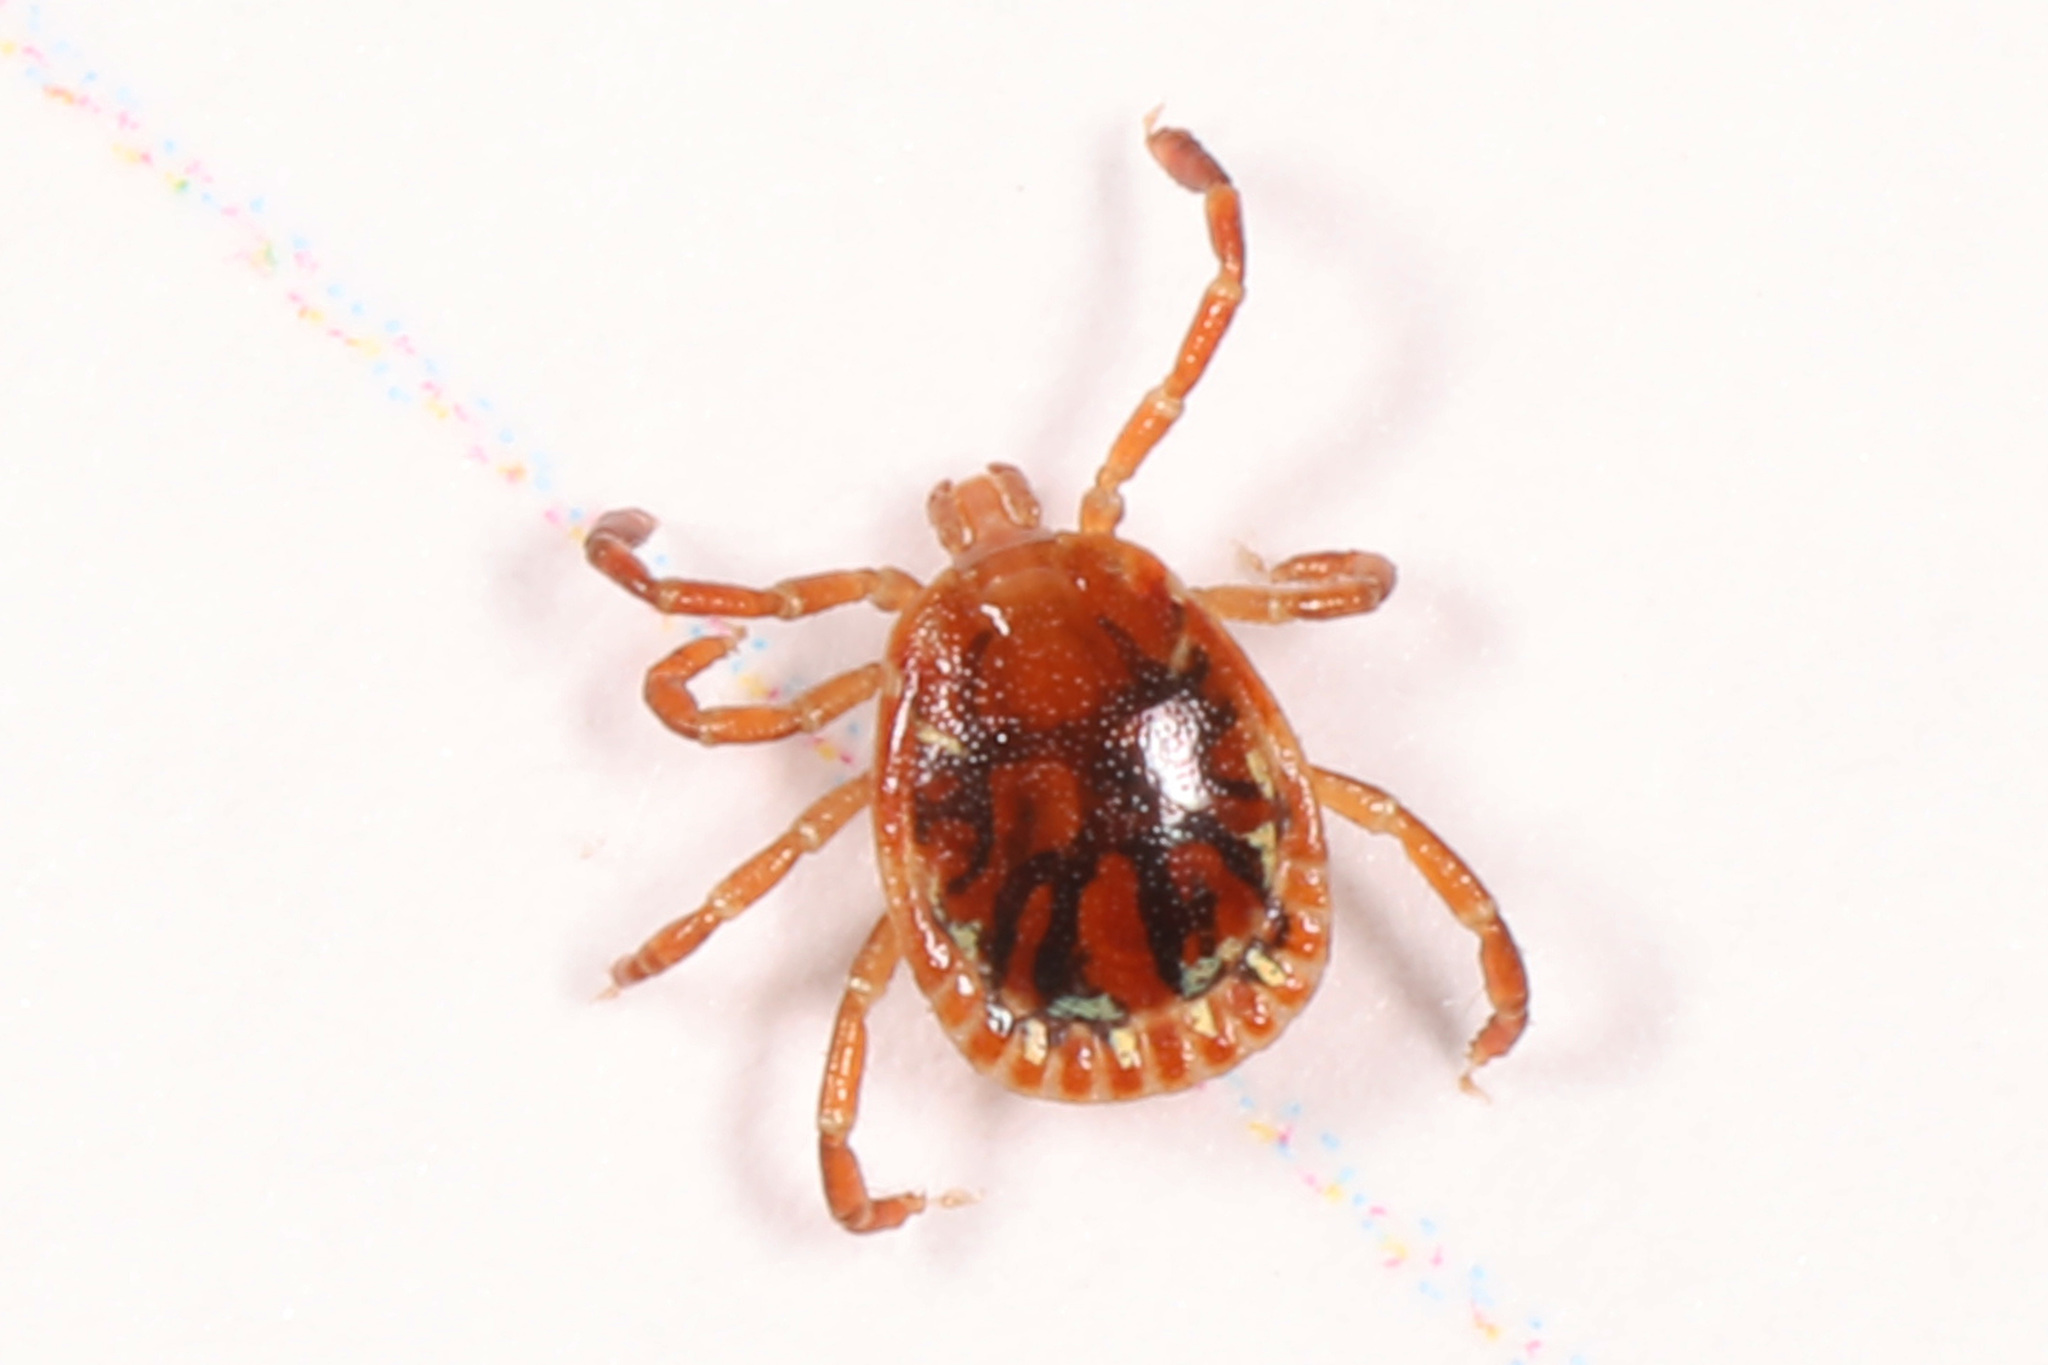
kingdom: Animalia
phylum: Arthropoda
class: Arachnida
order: Ixodida
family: Ixodidae
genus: Amblyomma
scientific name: Amblyomma americanum
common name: Lone star tick
